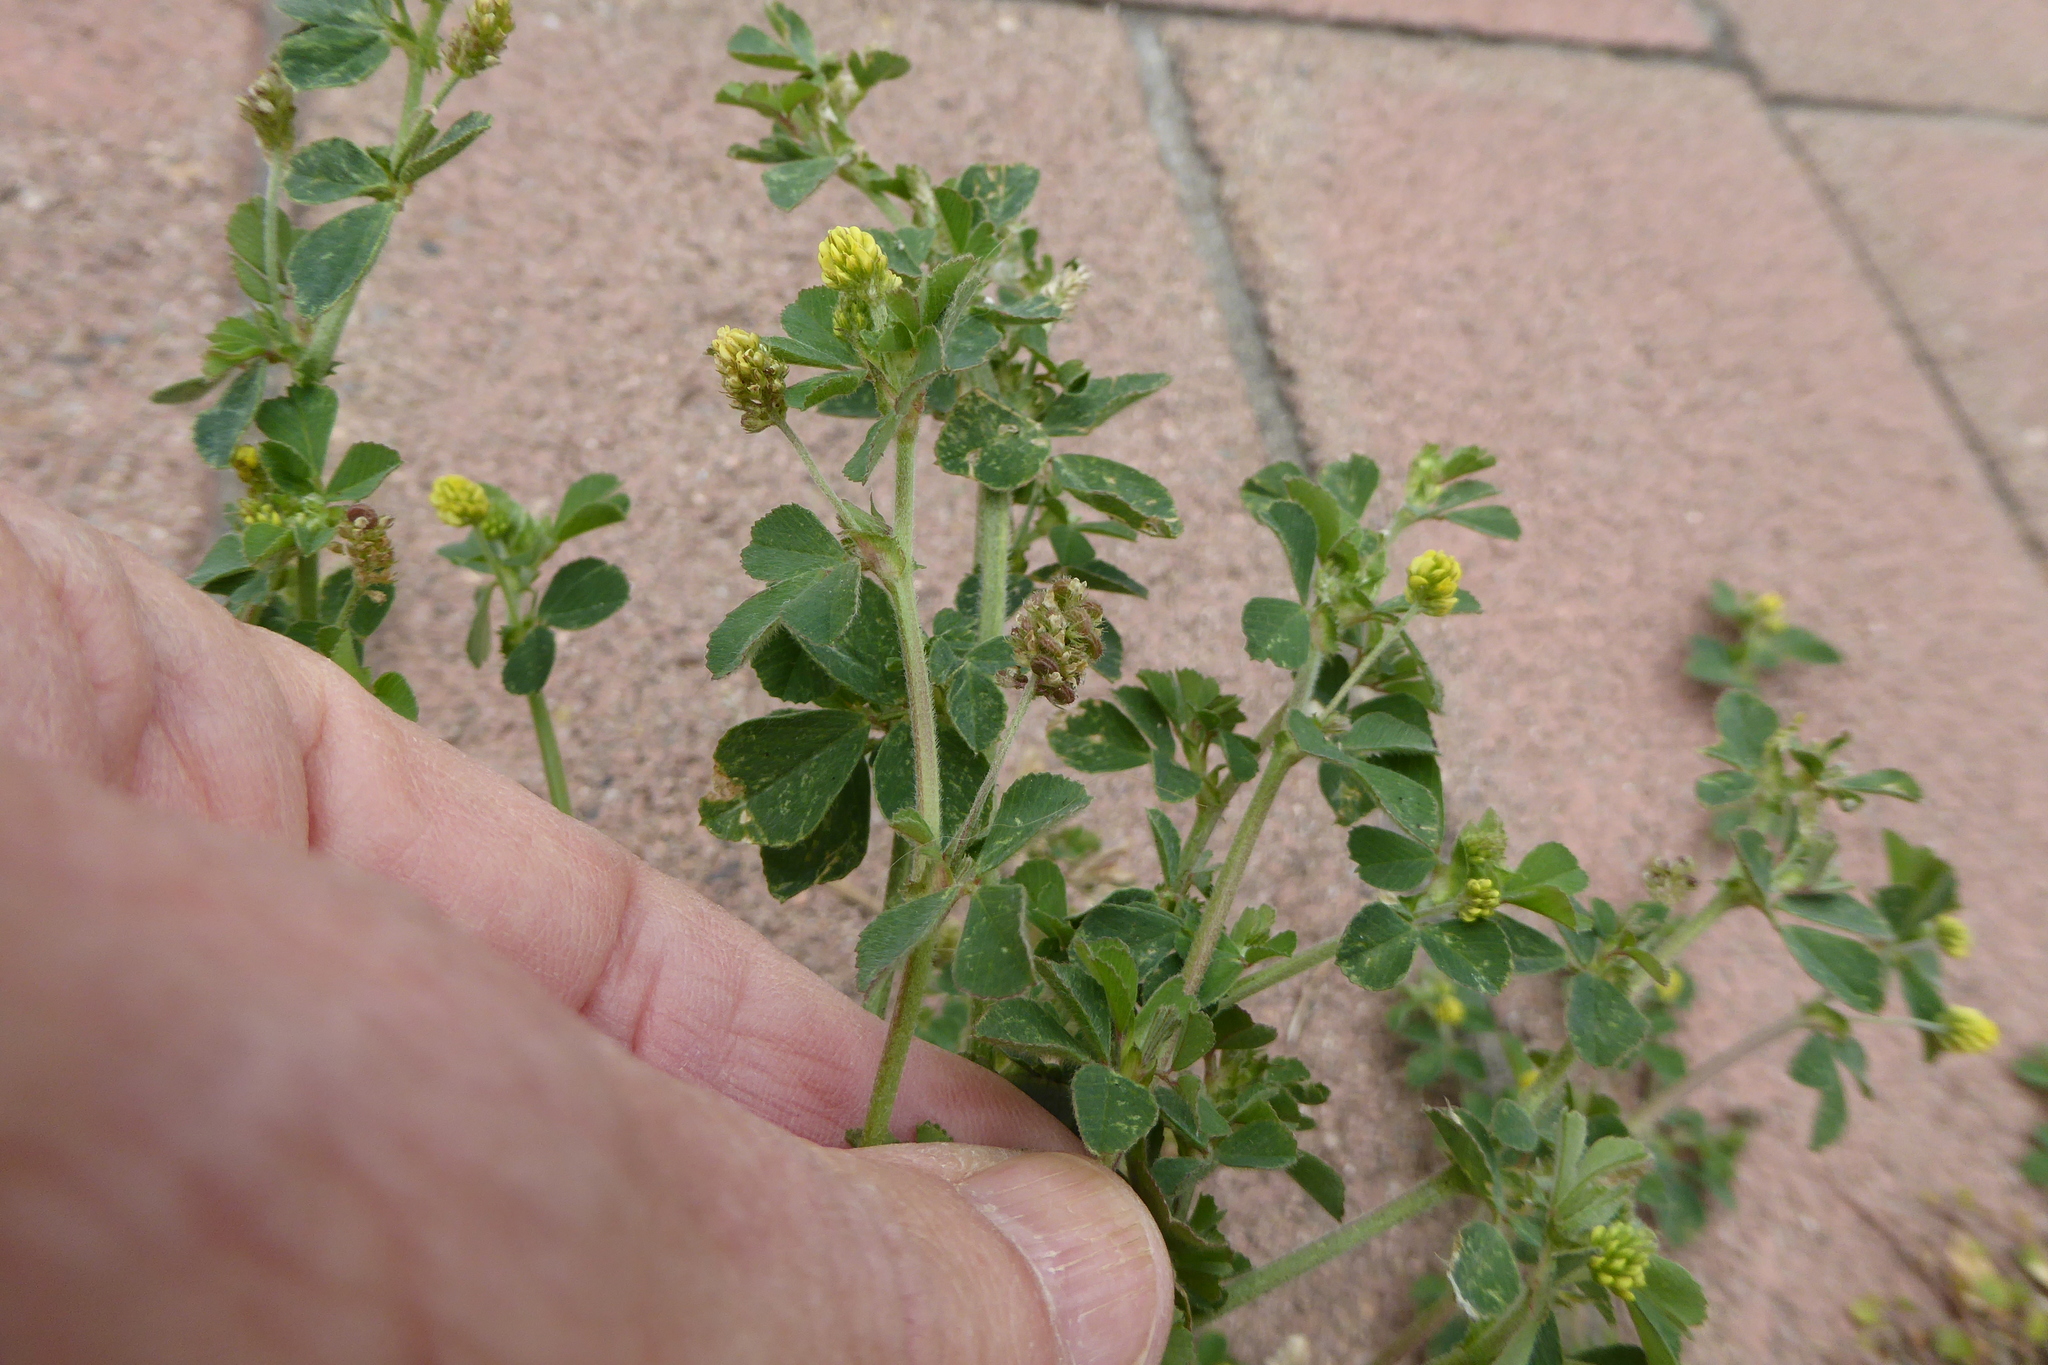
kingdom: Plantae
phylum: Tracheophyta
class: Magnoliopsida
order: Fabales
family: Fabaceae
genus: Medicago
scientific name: Medicago lupulina
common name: Black medick
